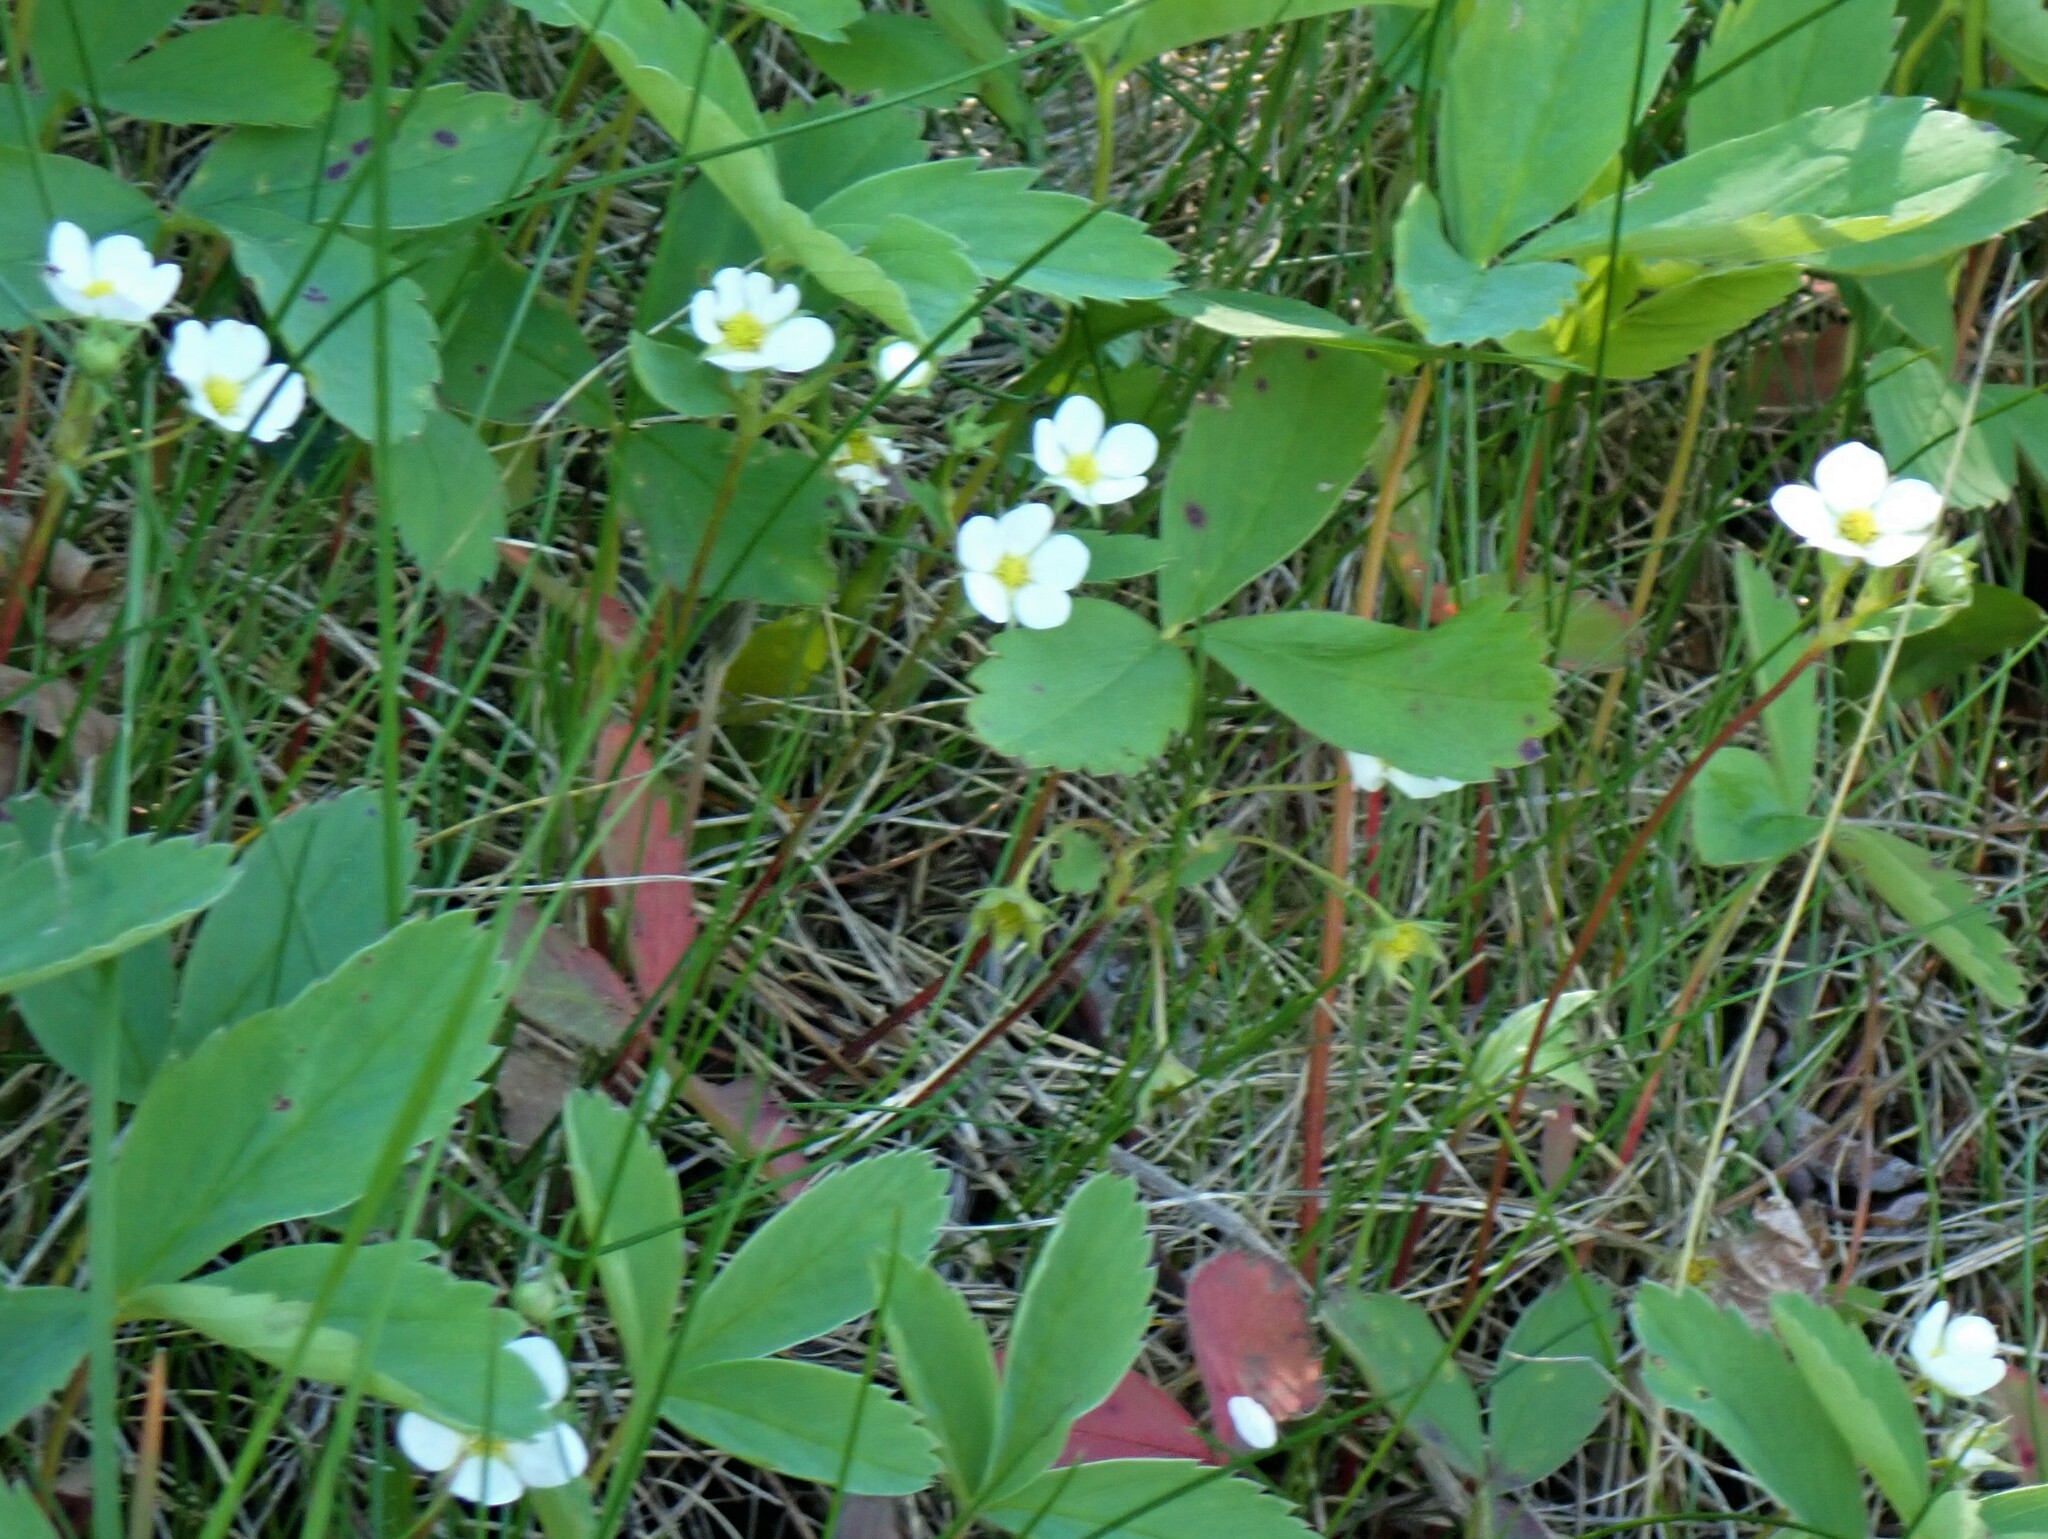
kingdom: Plantae
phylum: Tracheophyta
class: Magnoliopsida
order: Rosales
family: Rosaceae
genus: Fragaria
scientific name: Fragaria virginiana
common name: Thickleaved wild strawberry
